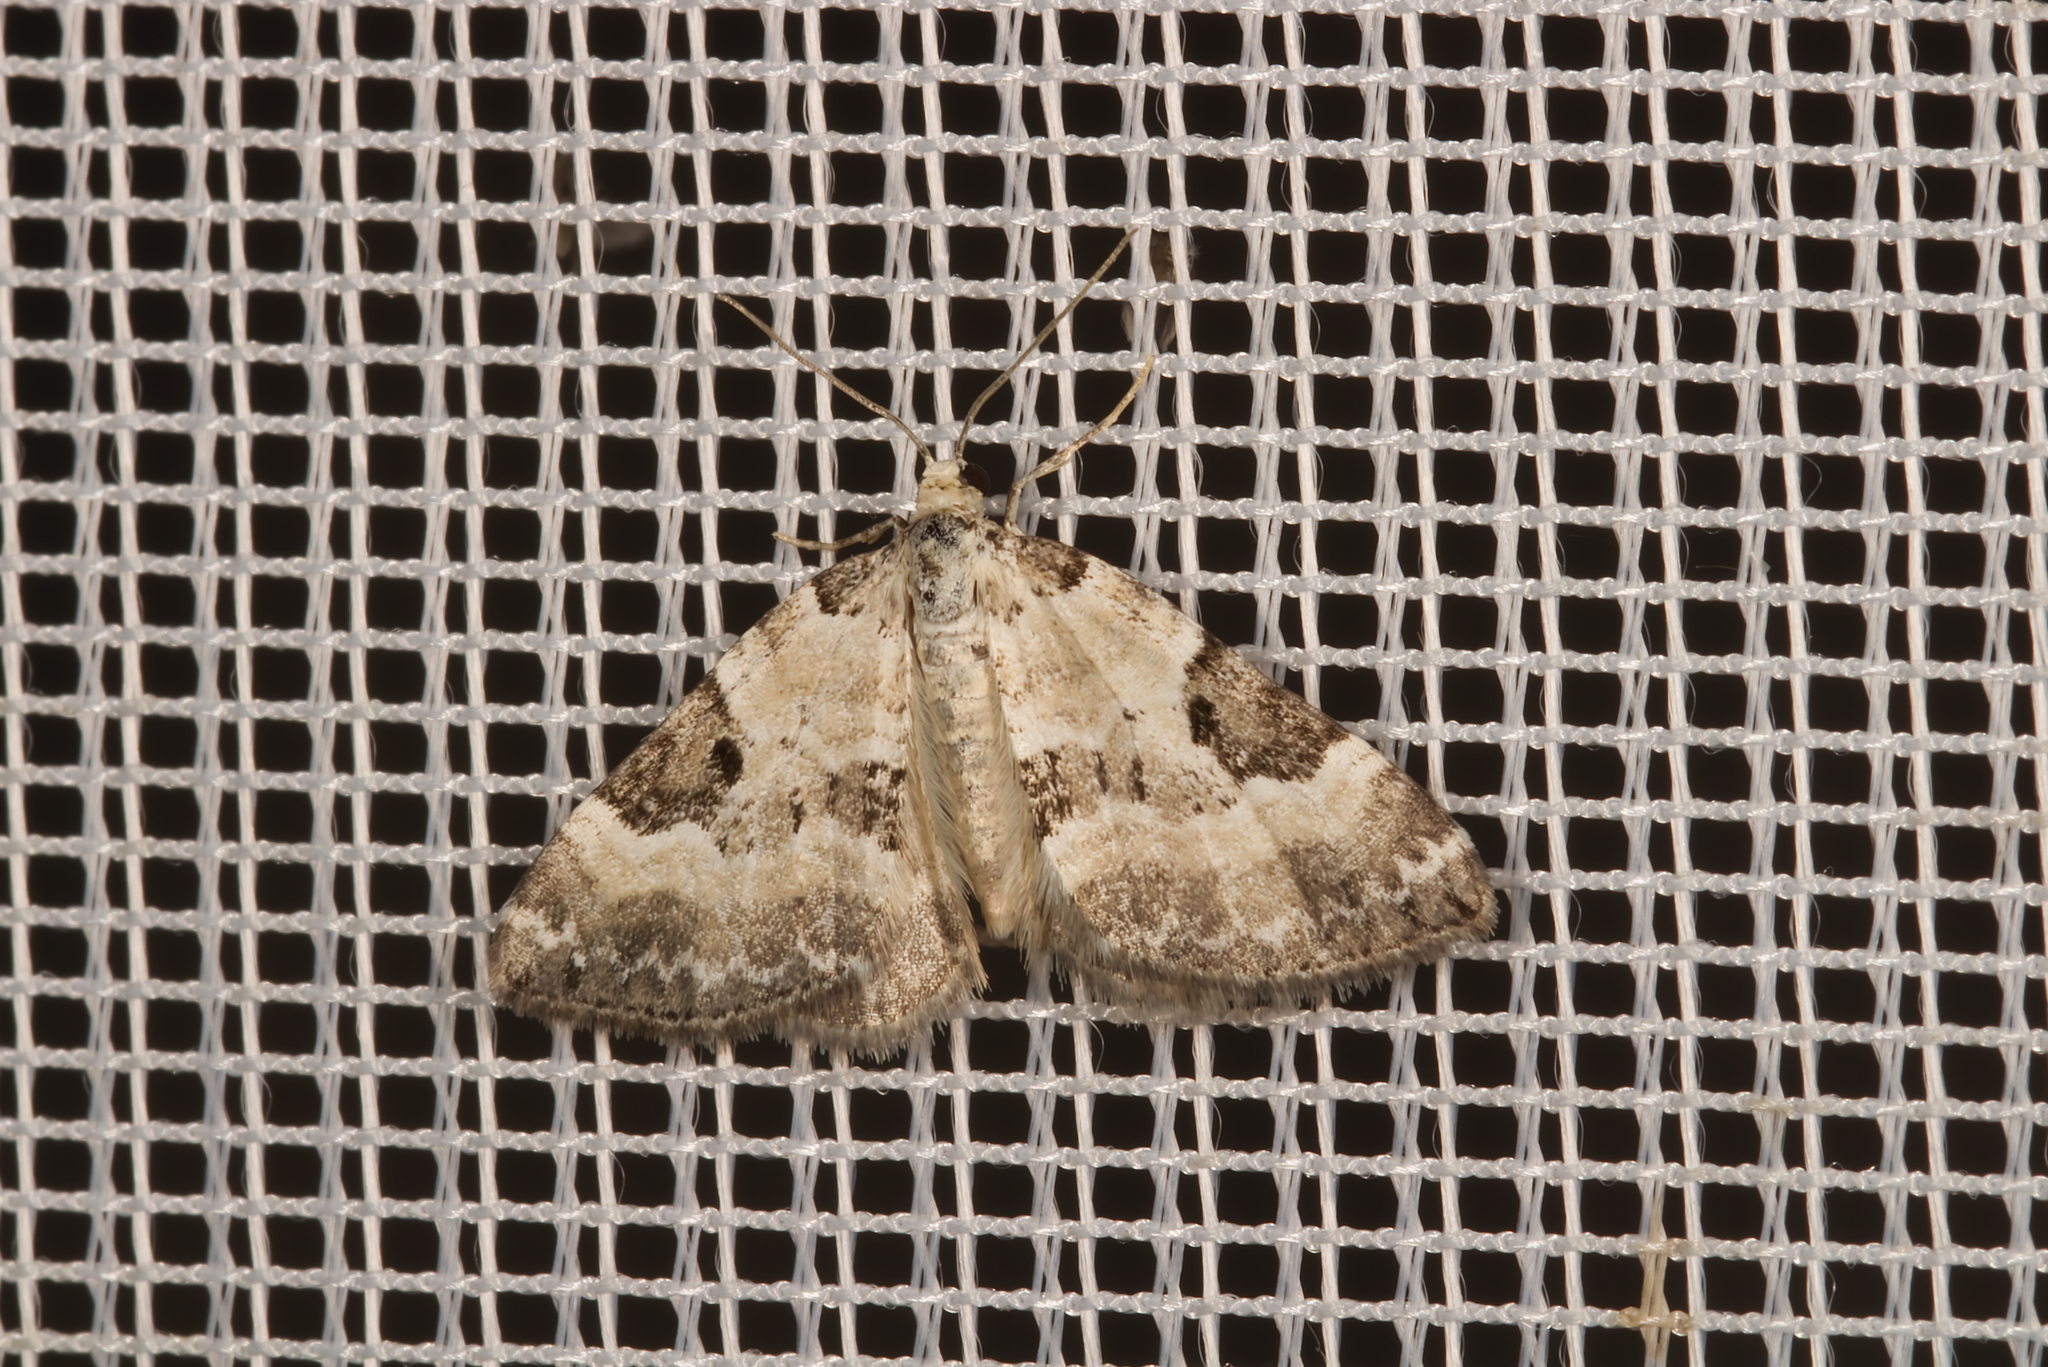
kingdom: Animalia
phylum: Arthropoda
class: Insecta
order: Lepidoptera
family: Geometridae
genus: Perizoma
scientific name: Perizoma blandiata
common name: Pretty pinion
